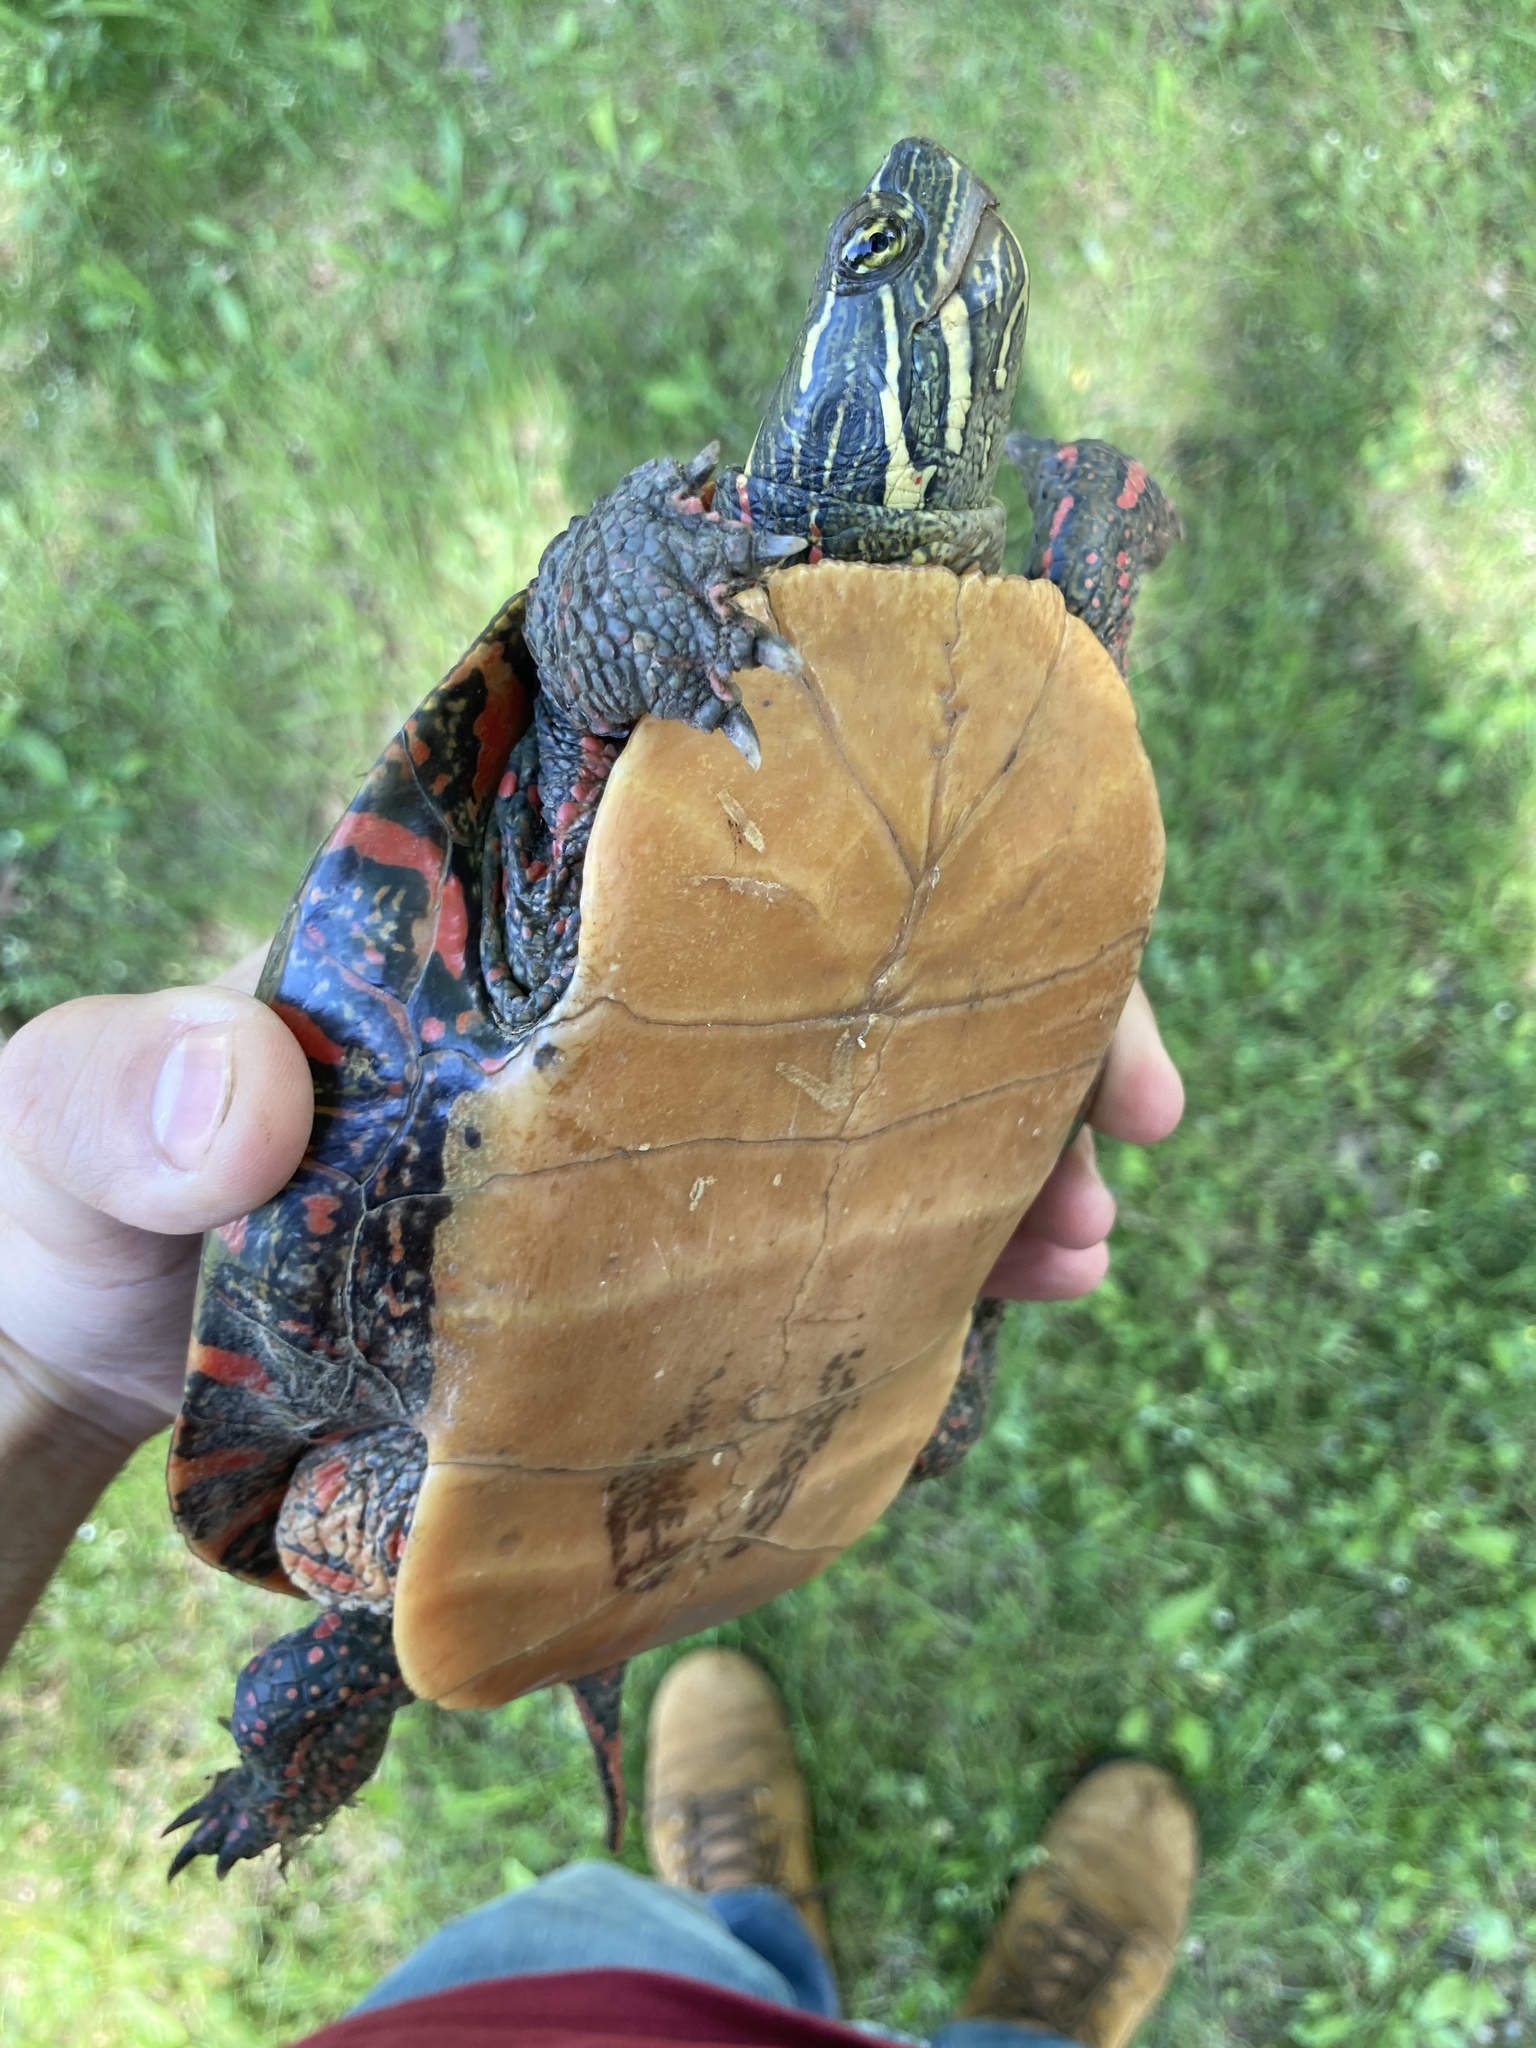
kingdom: Animalia
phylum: Chordata
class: Testudines
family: Emydidae
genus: Chrysemys
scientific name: Chrysemys picta
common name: Painted turtle
